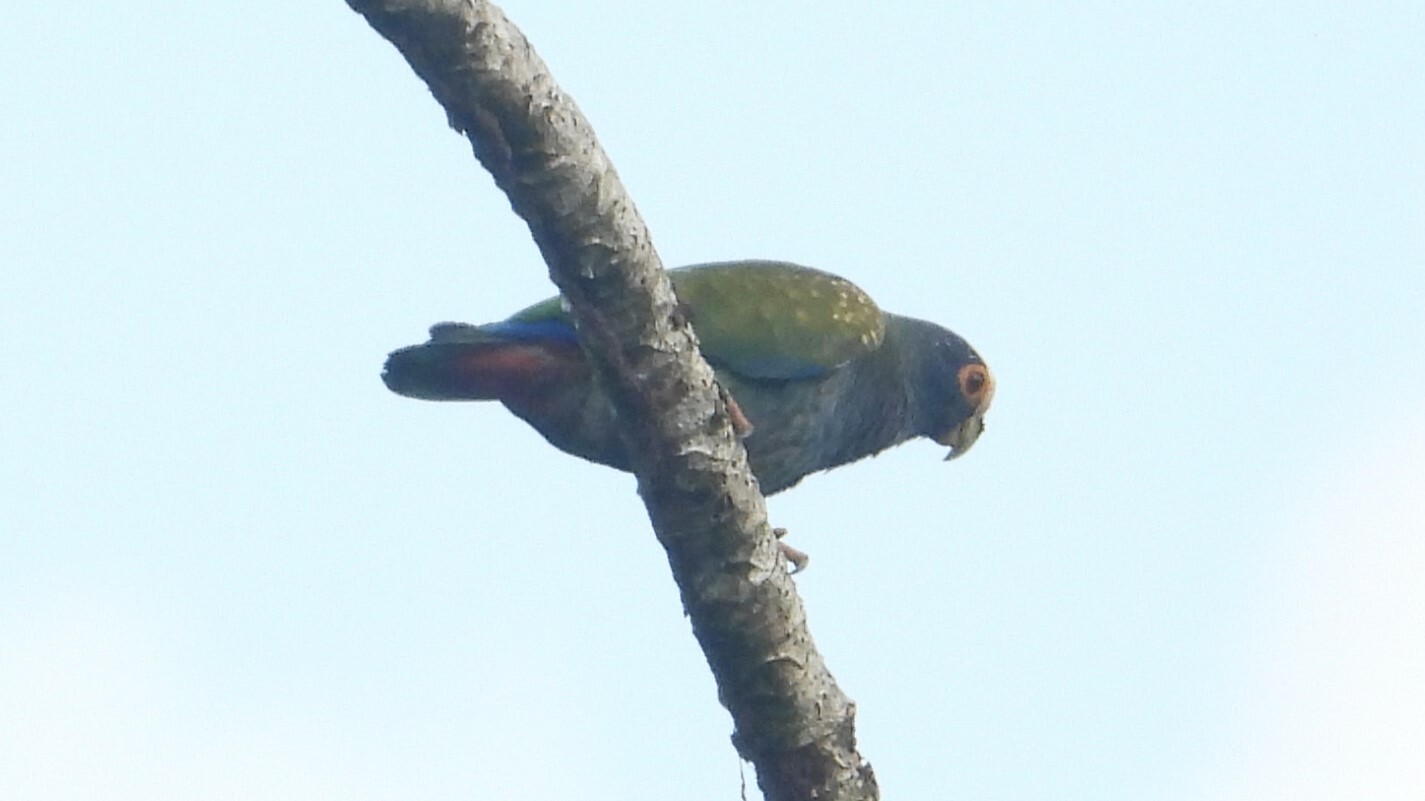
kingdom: Animalia
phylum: Chordata
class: Aves
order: Psittaciformes
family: Psittacidae
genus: Pionus
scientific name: Pionus senilis
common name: White-crowned parrot
